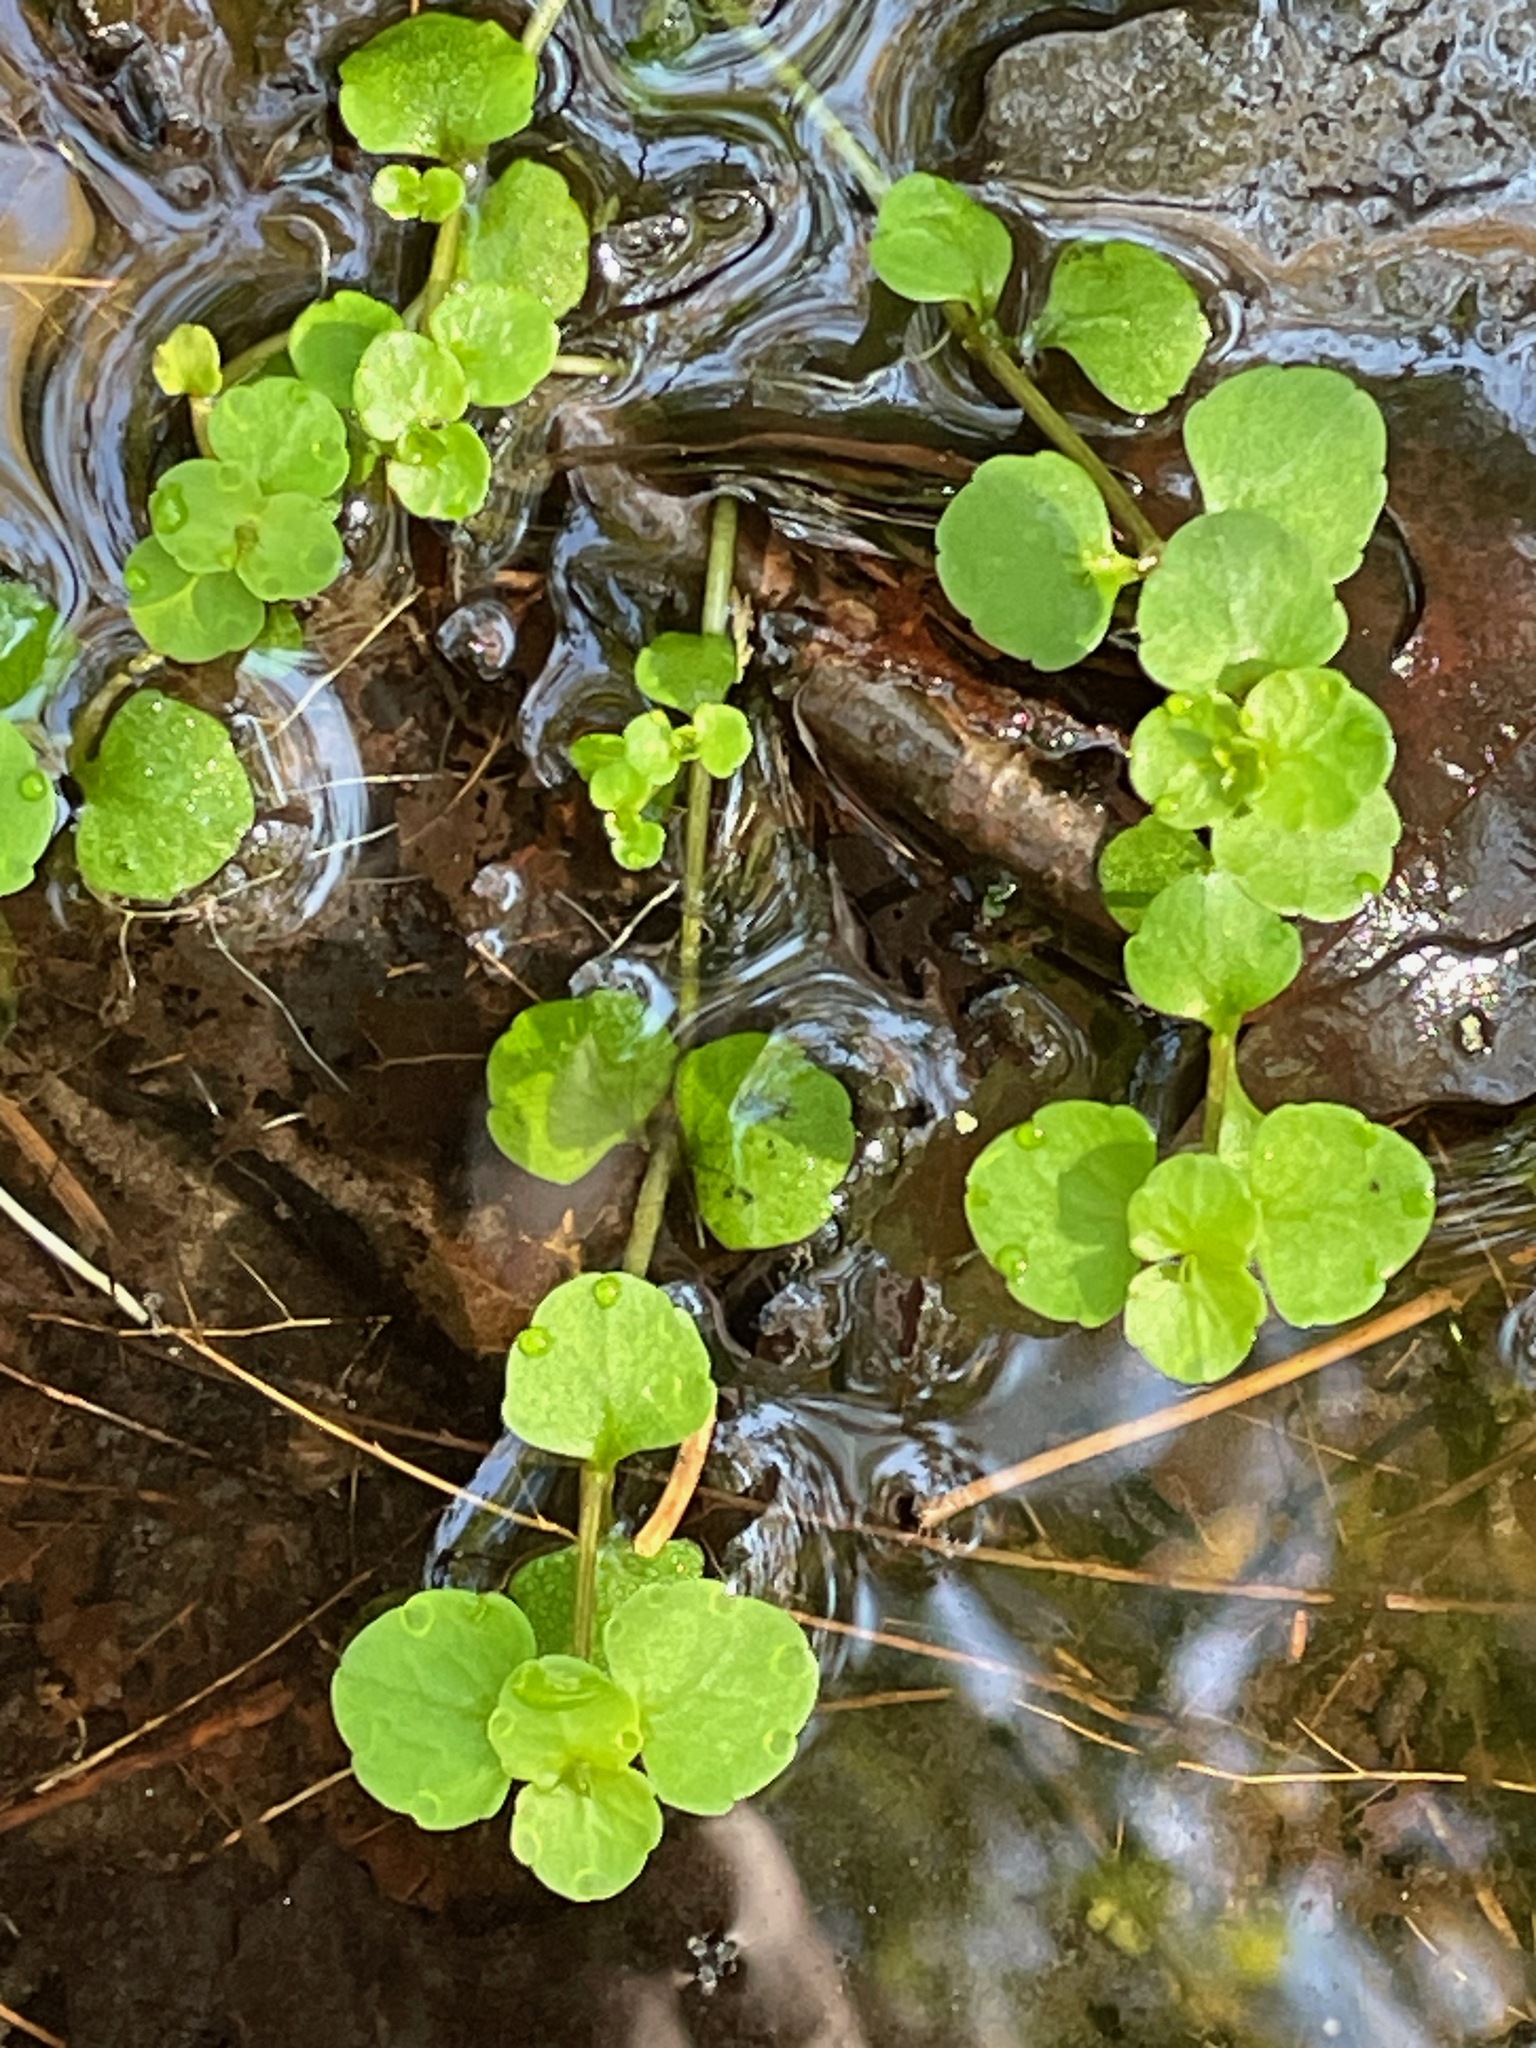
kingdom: Plantae
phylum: Tracheophyta
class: Magnoliopsida
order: Saxifragales
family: Saxifragaceae
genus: Chrysosplenium
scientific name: Chrysosplenium americanum
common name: American golden-saxifrage
